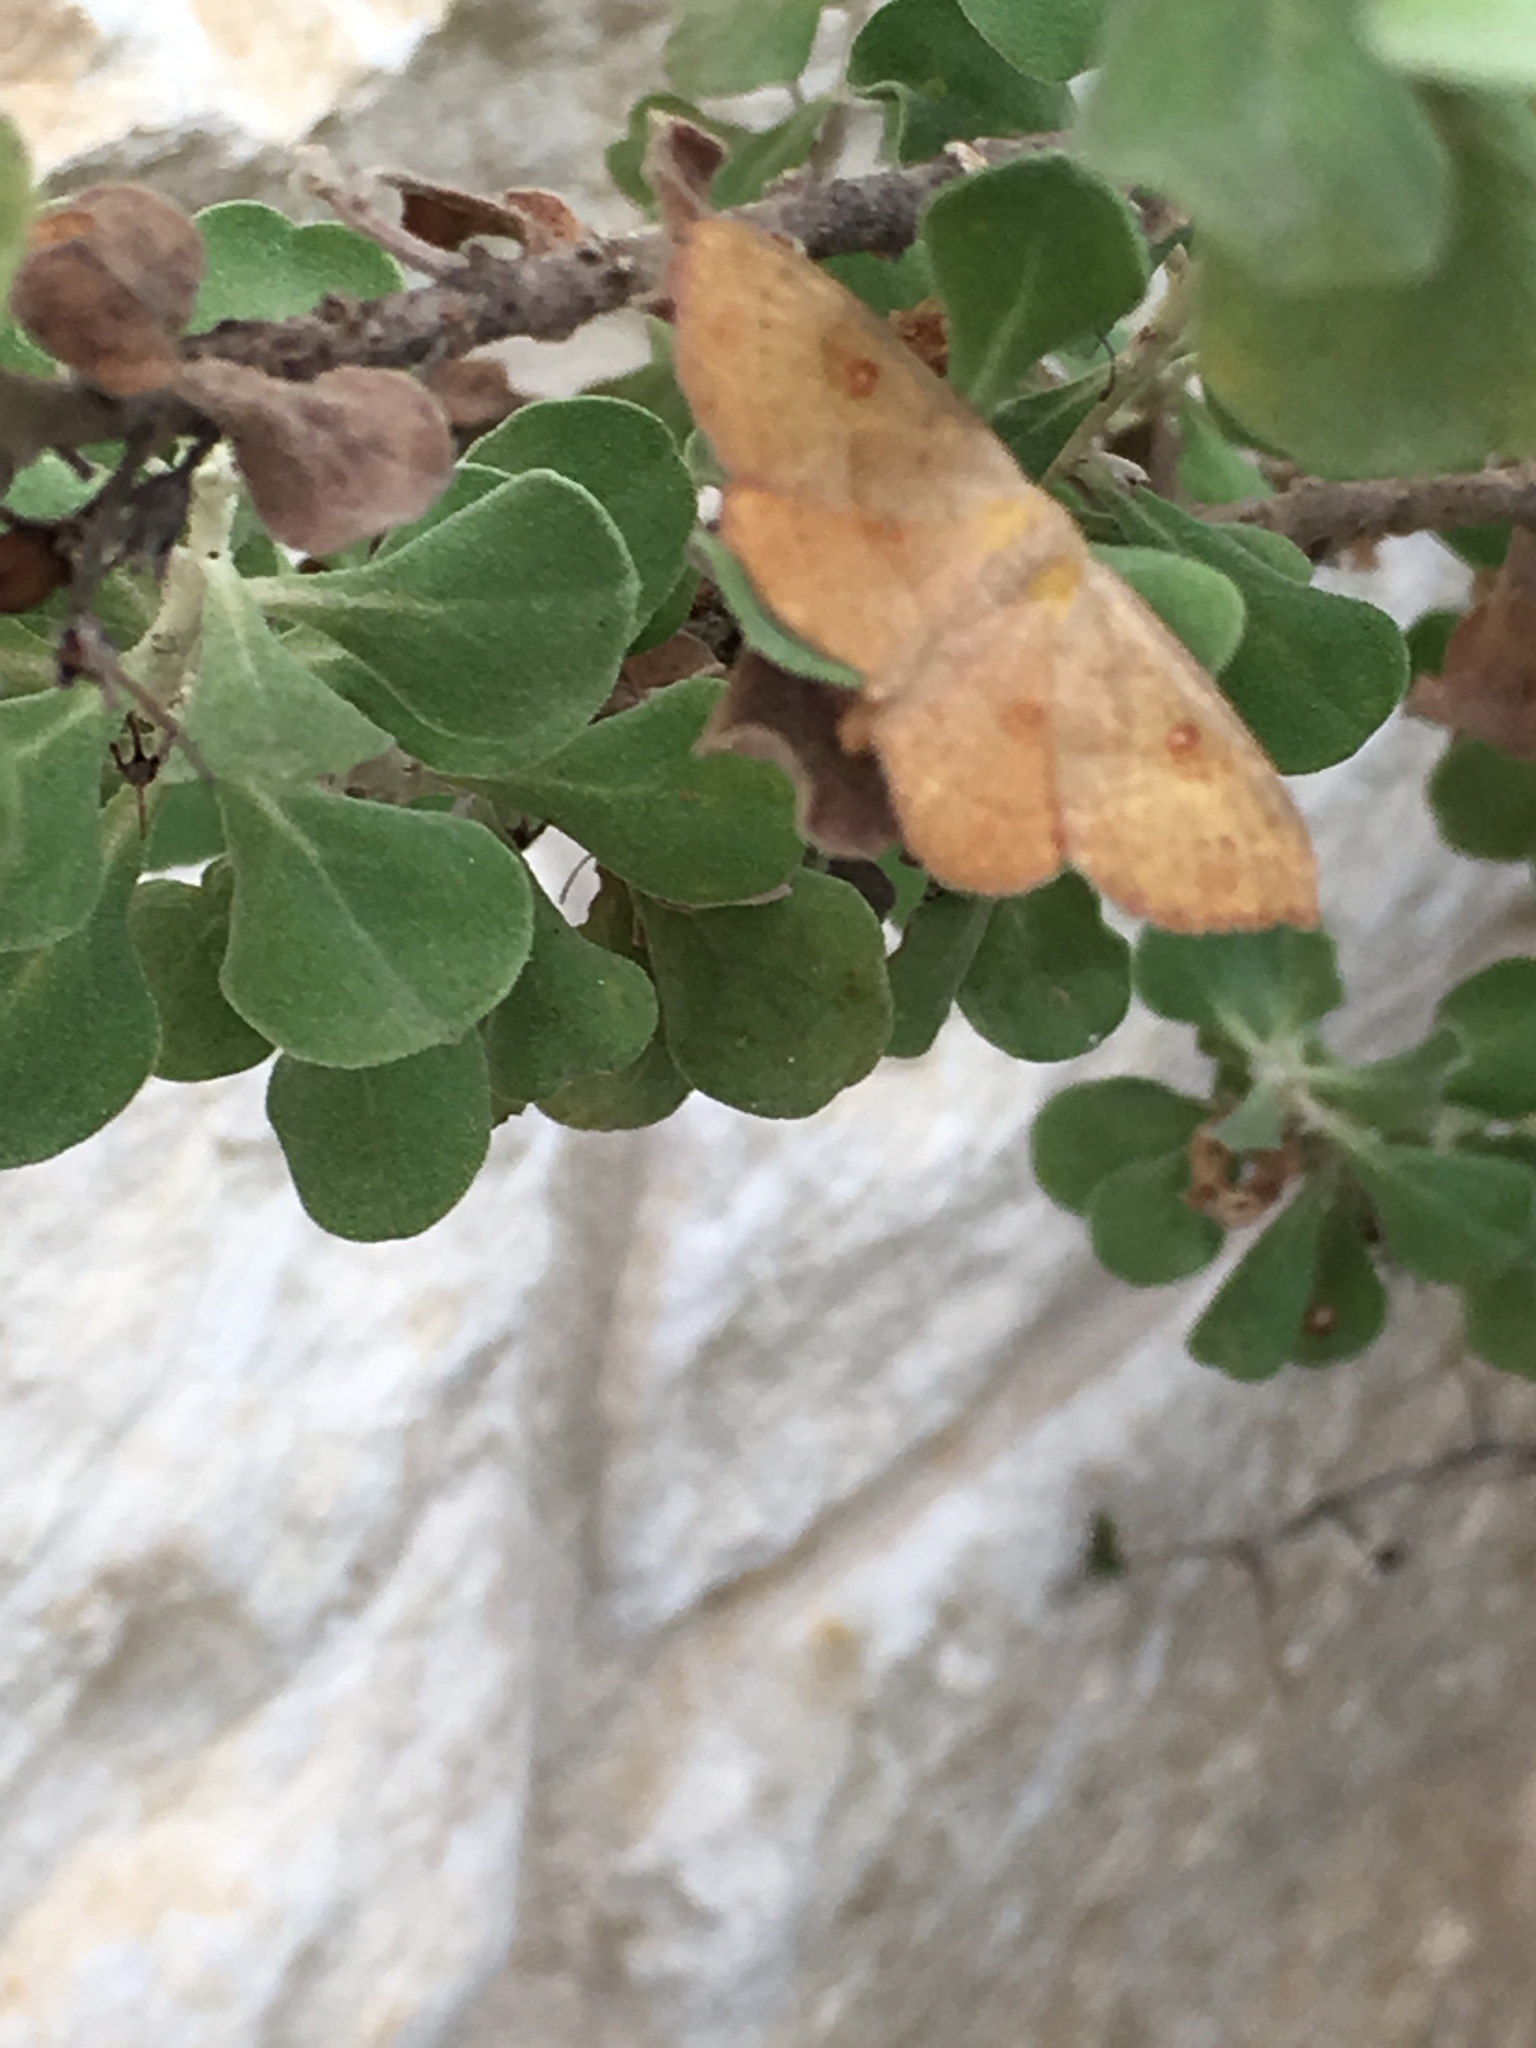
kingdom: Animalia
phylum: Arthropoda
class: Insecta
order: Lepidoptera
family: Geometridae
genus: Semaeopus
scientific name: Semaeopus ella
